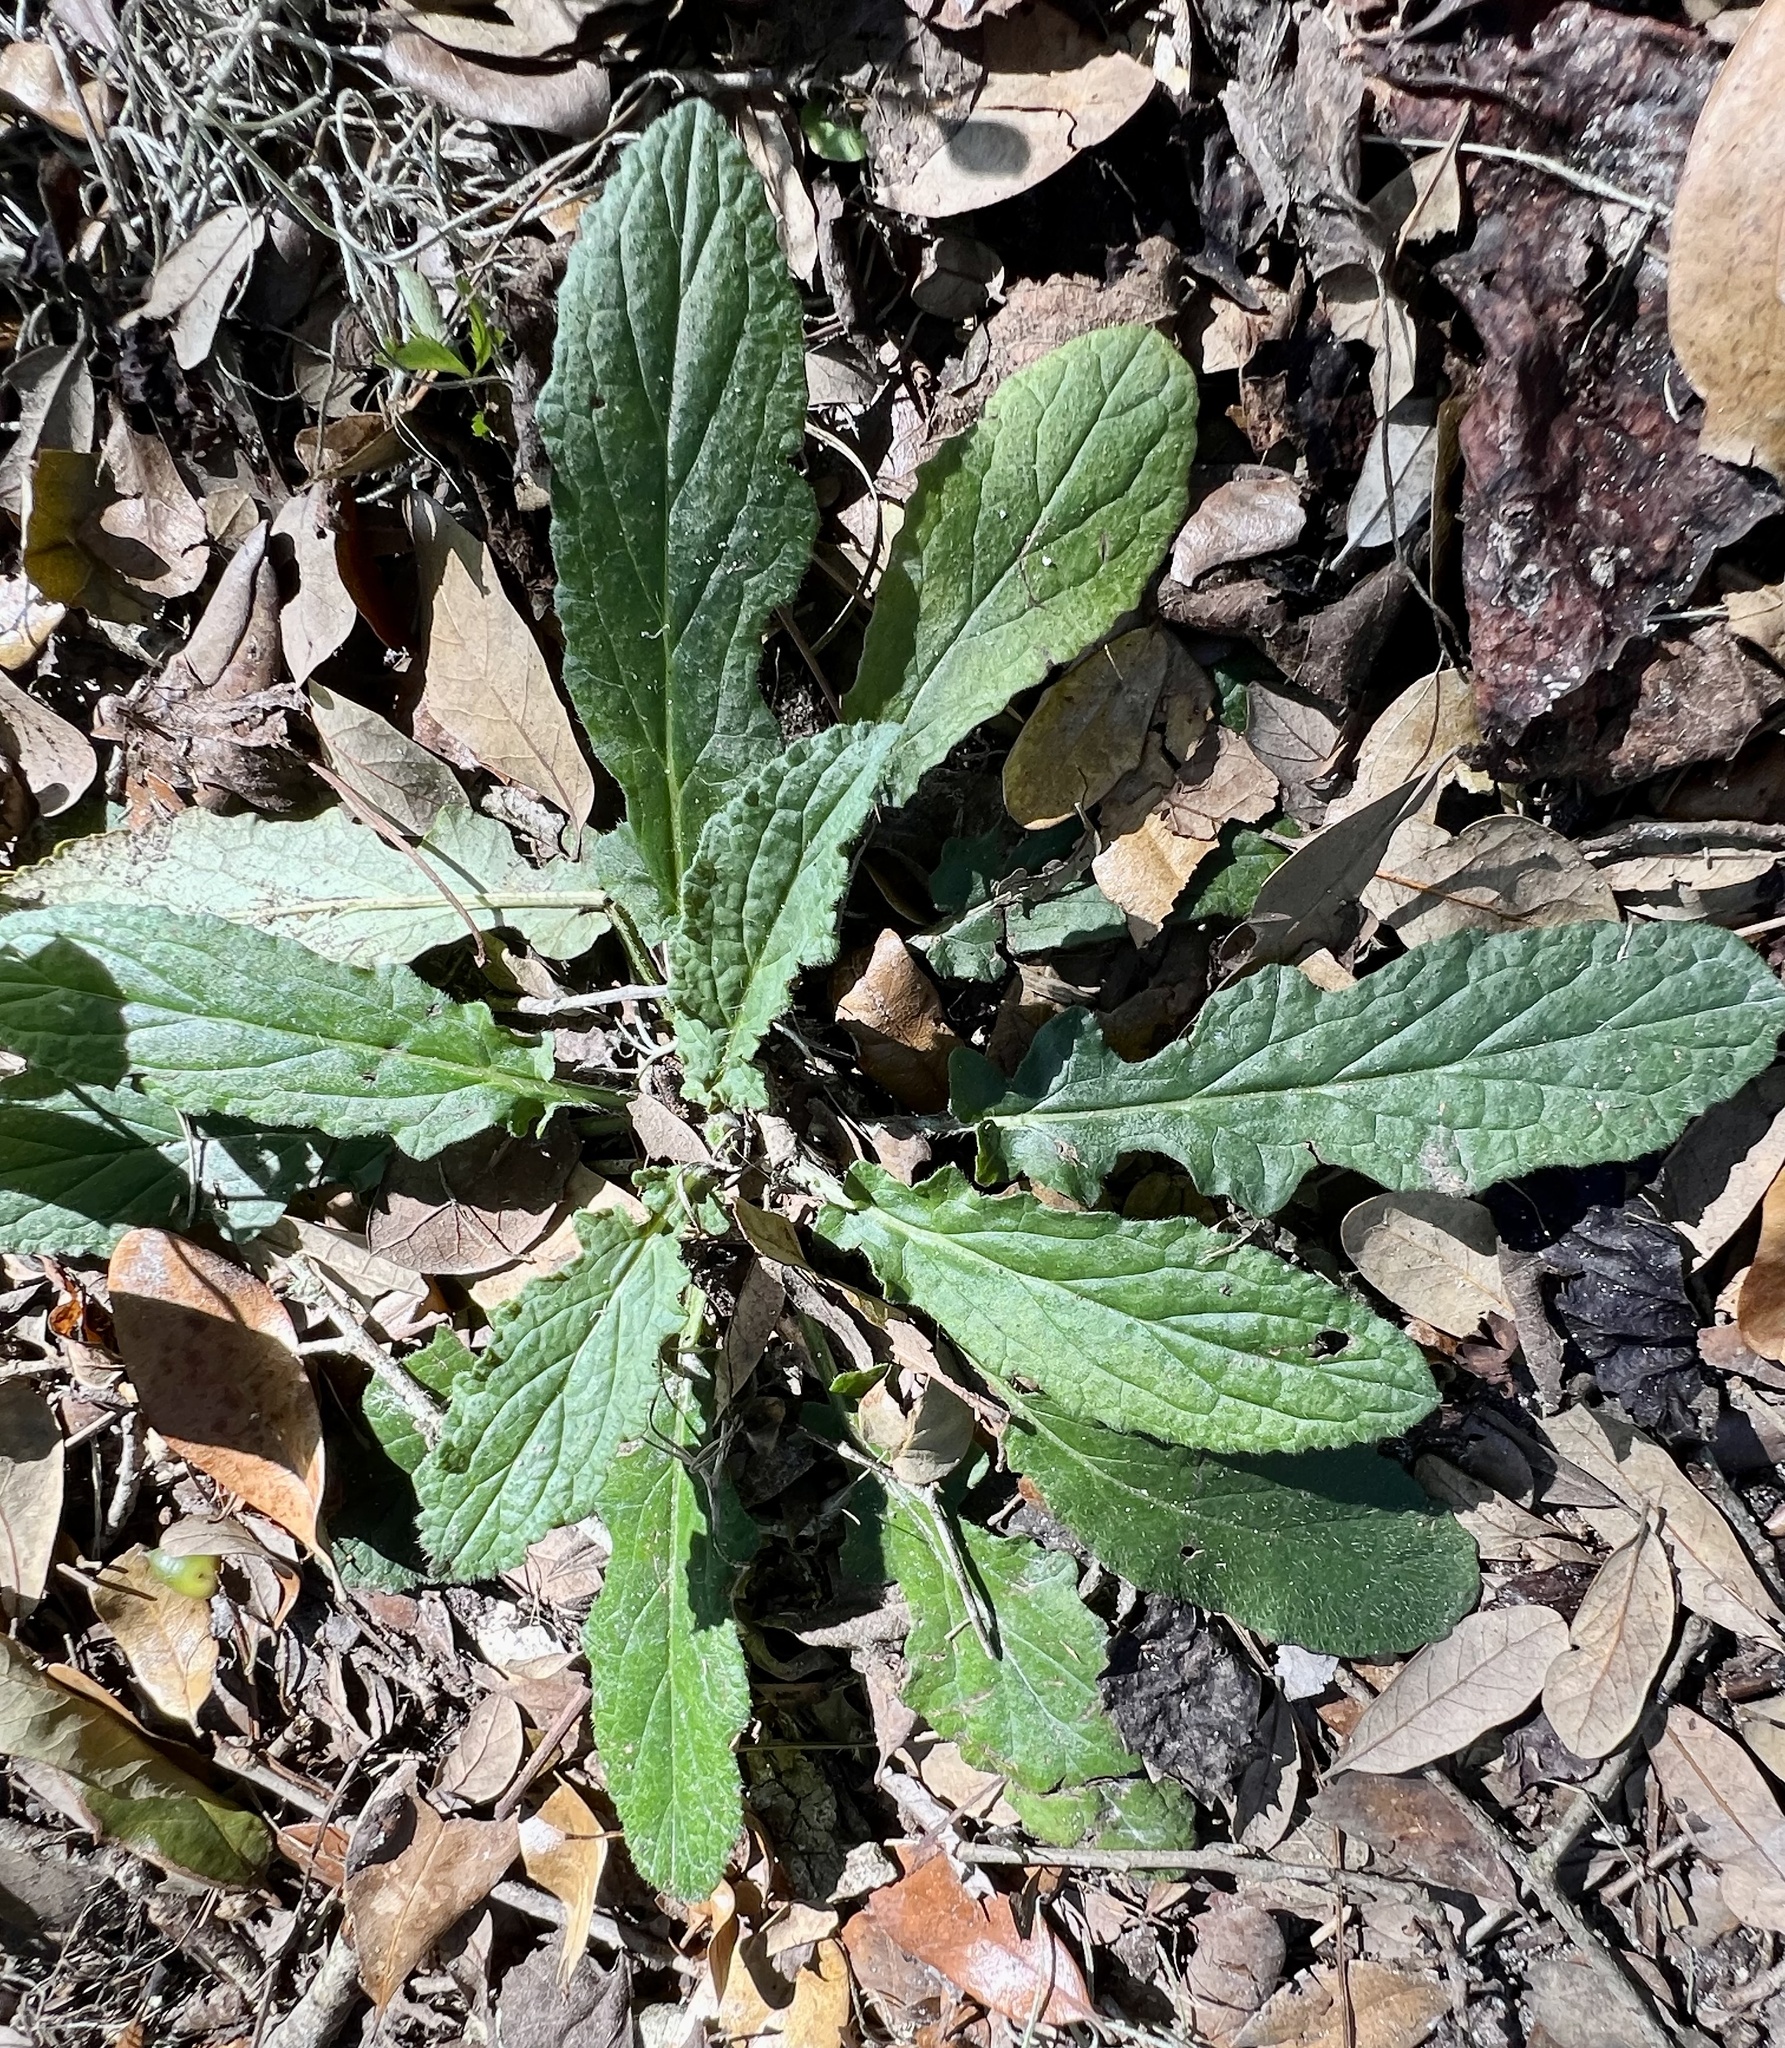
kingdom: Plantae
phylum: Tracheophyta
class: Magnoliopsida
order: Lamiales
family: Lamiaceae
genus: Salvia
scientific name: Salvia lyrata
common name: Cancerweed
